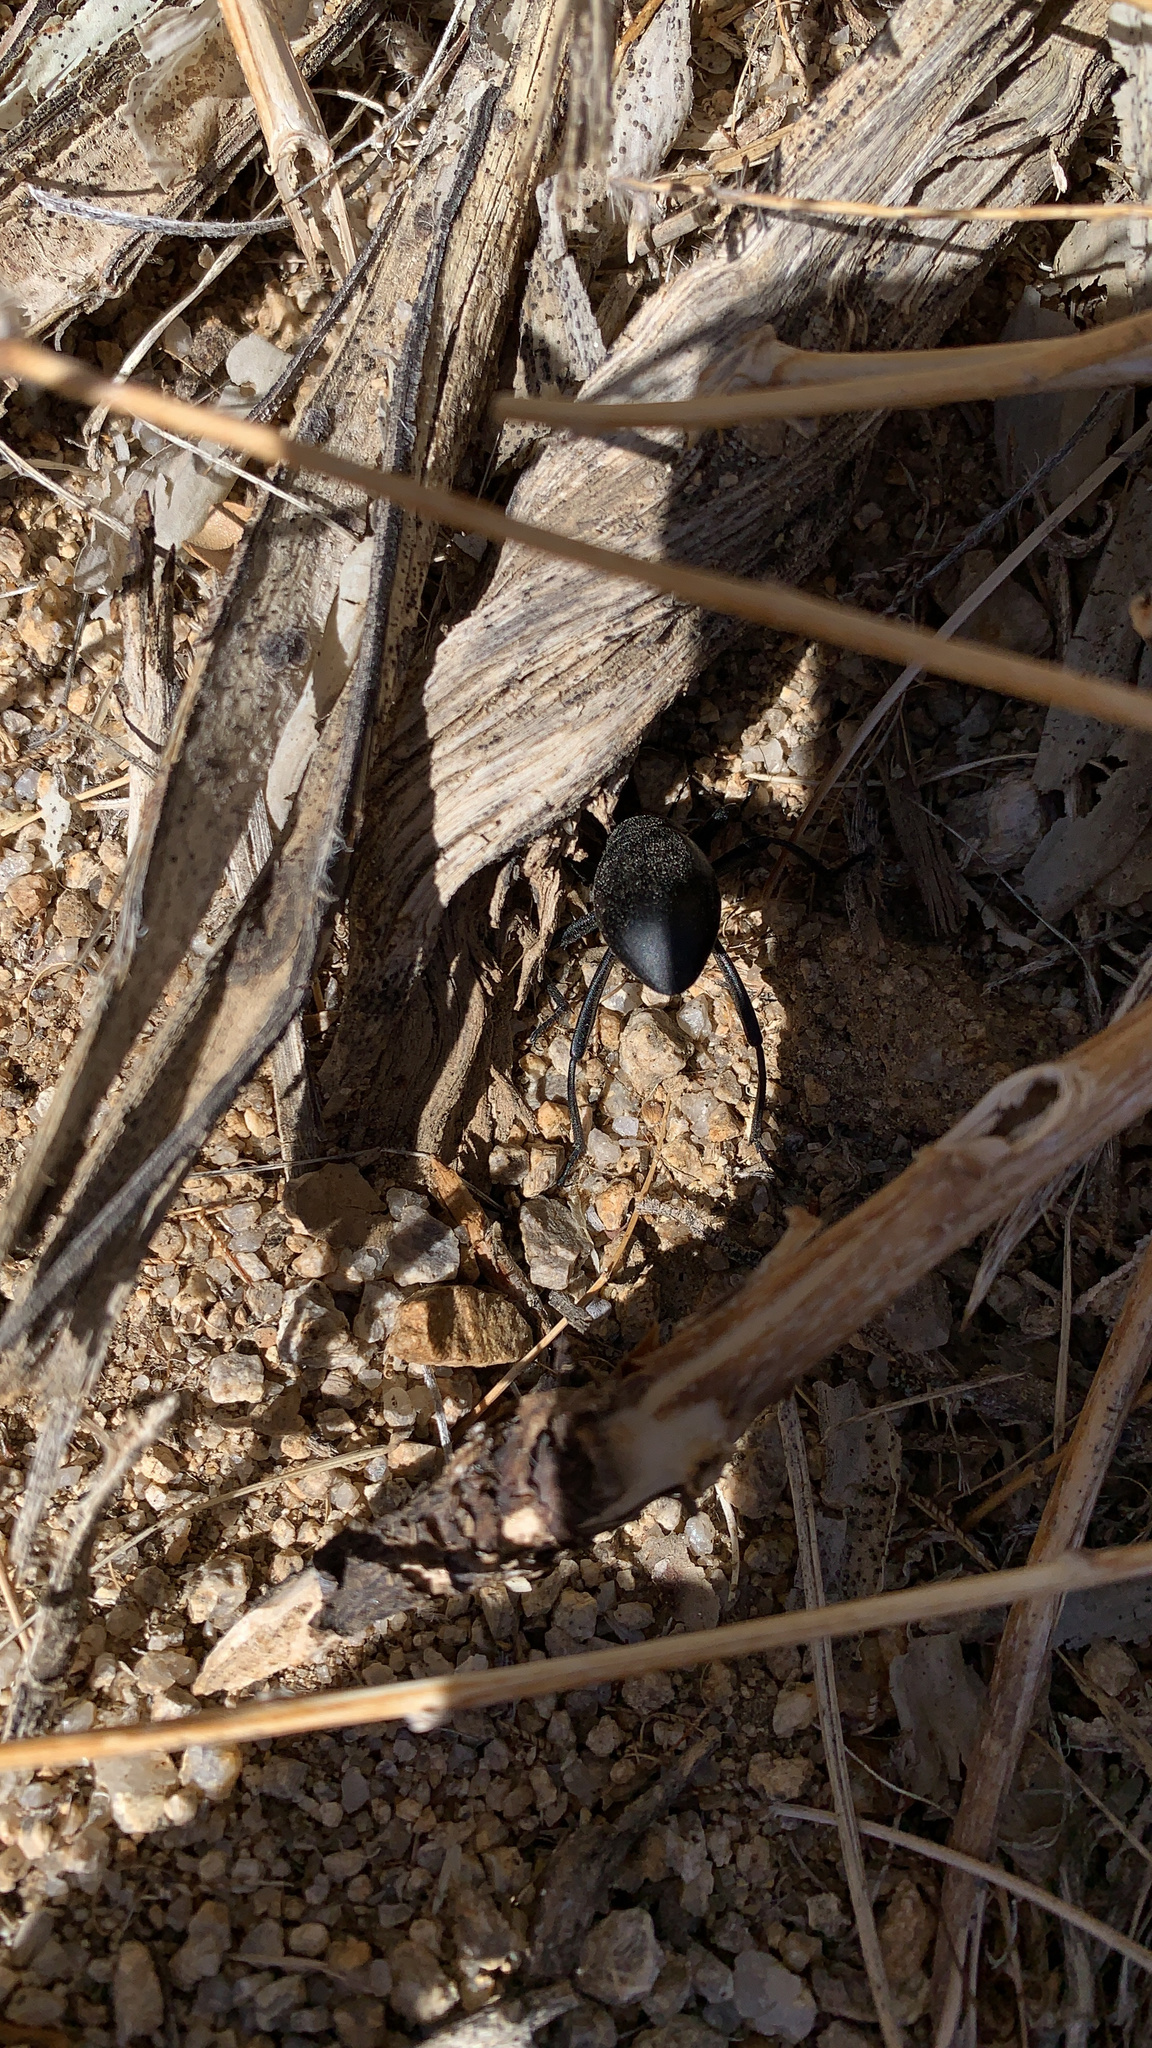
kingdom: Animalia
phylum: Arthropoda
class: Insecta
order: Coleoptera
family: Tenebrionidae
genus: Eleodes
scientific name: Eleodes armata
